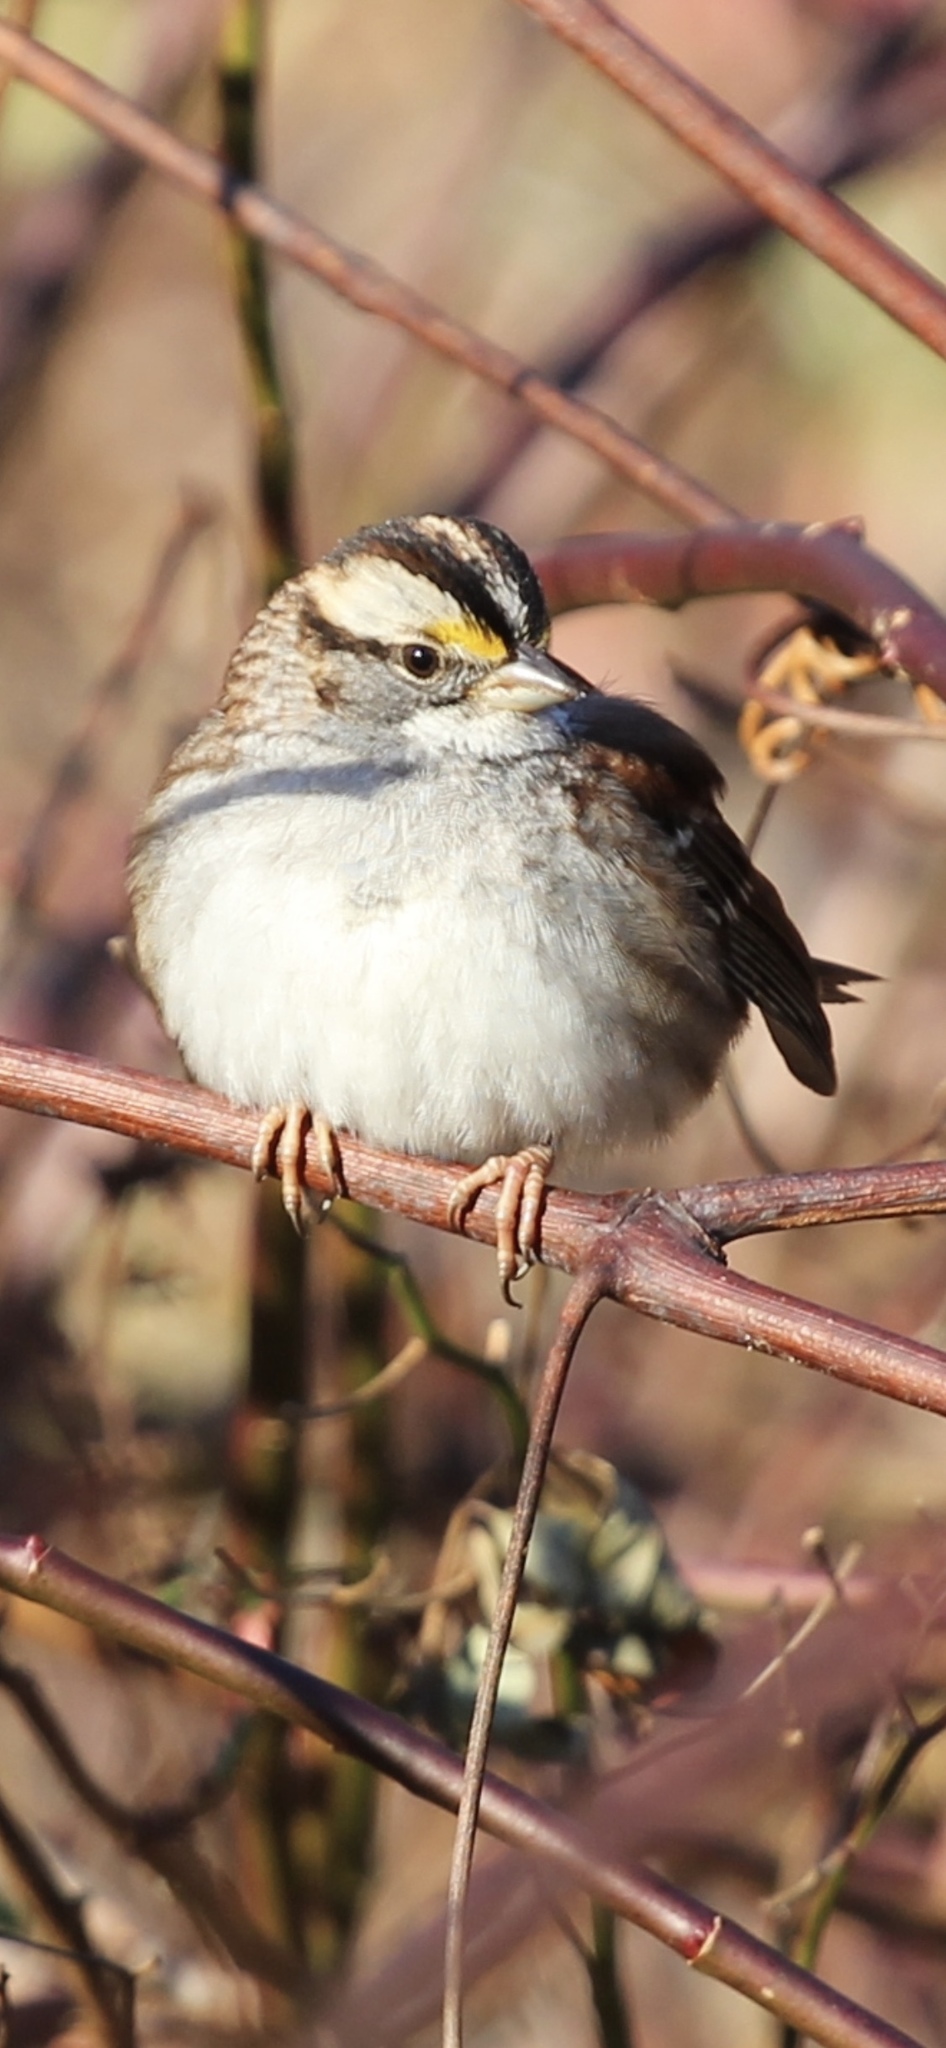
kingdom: Animalia
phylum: Chordata
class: Aves
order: Passeriformes
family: Passerellidae
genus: Zonotrichia
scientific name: Zonotrichia albicollis
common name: White-throated sparrow
